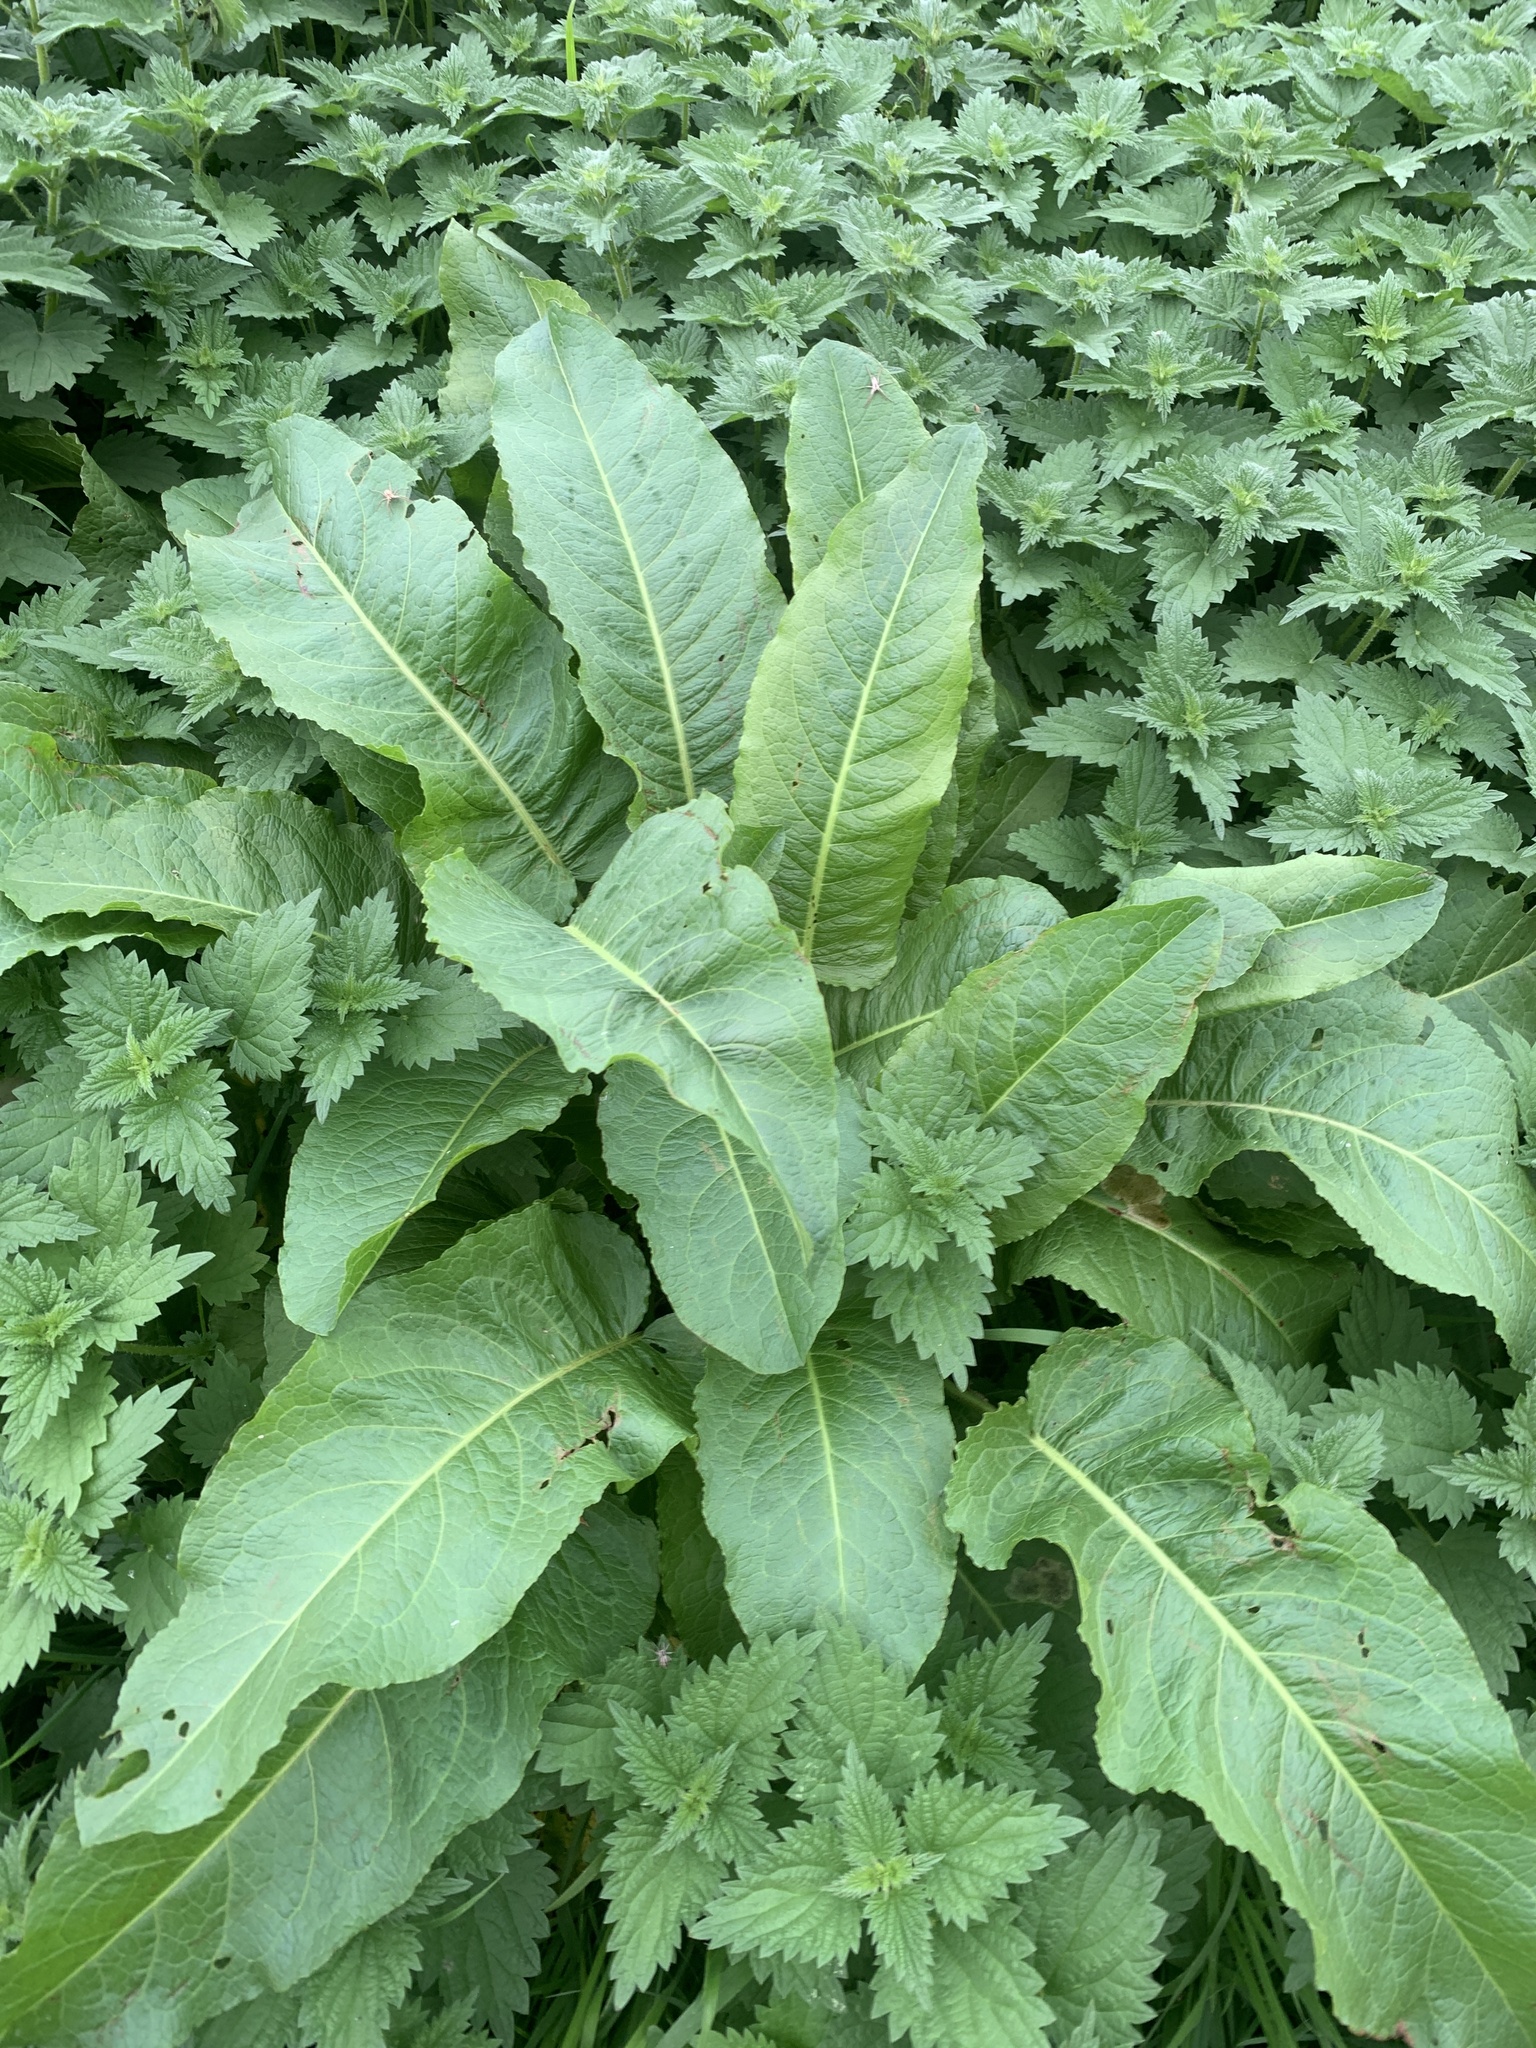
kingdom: Plantae
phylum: Tracheophyta
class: Magnoliopsida
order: Caryophyllales
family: Polygonaceae
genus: Rumex
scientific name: Rumex obtusifolius
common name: Bitter dock
